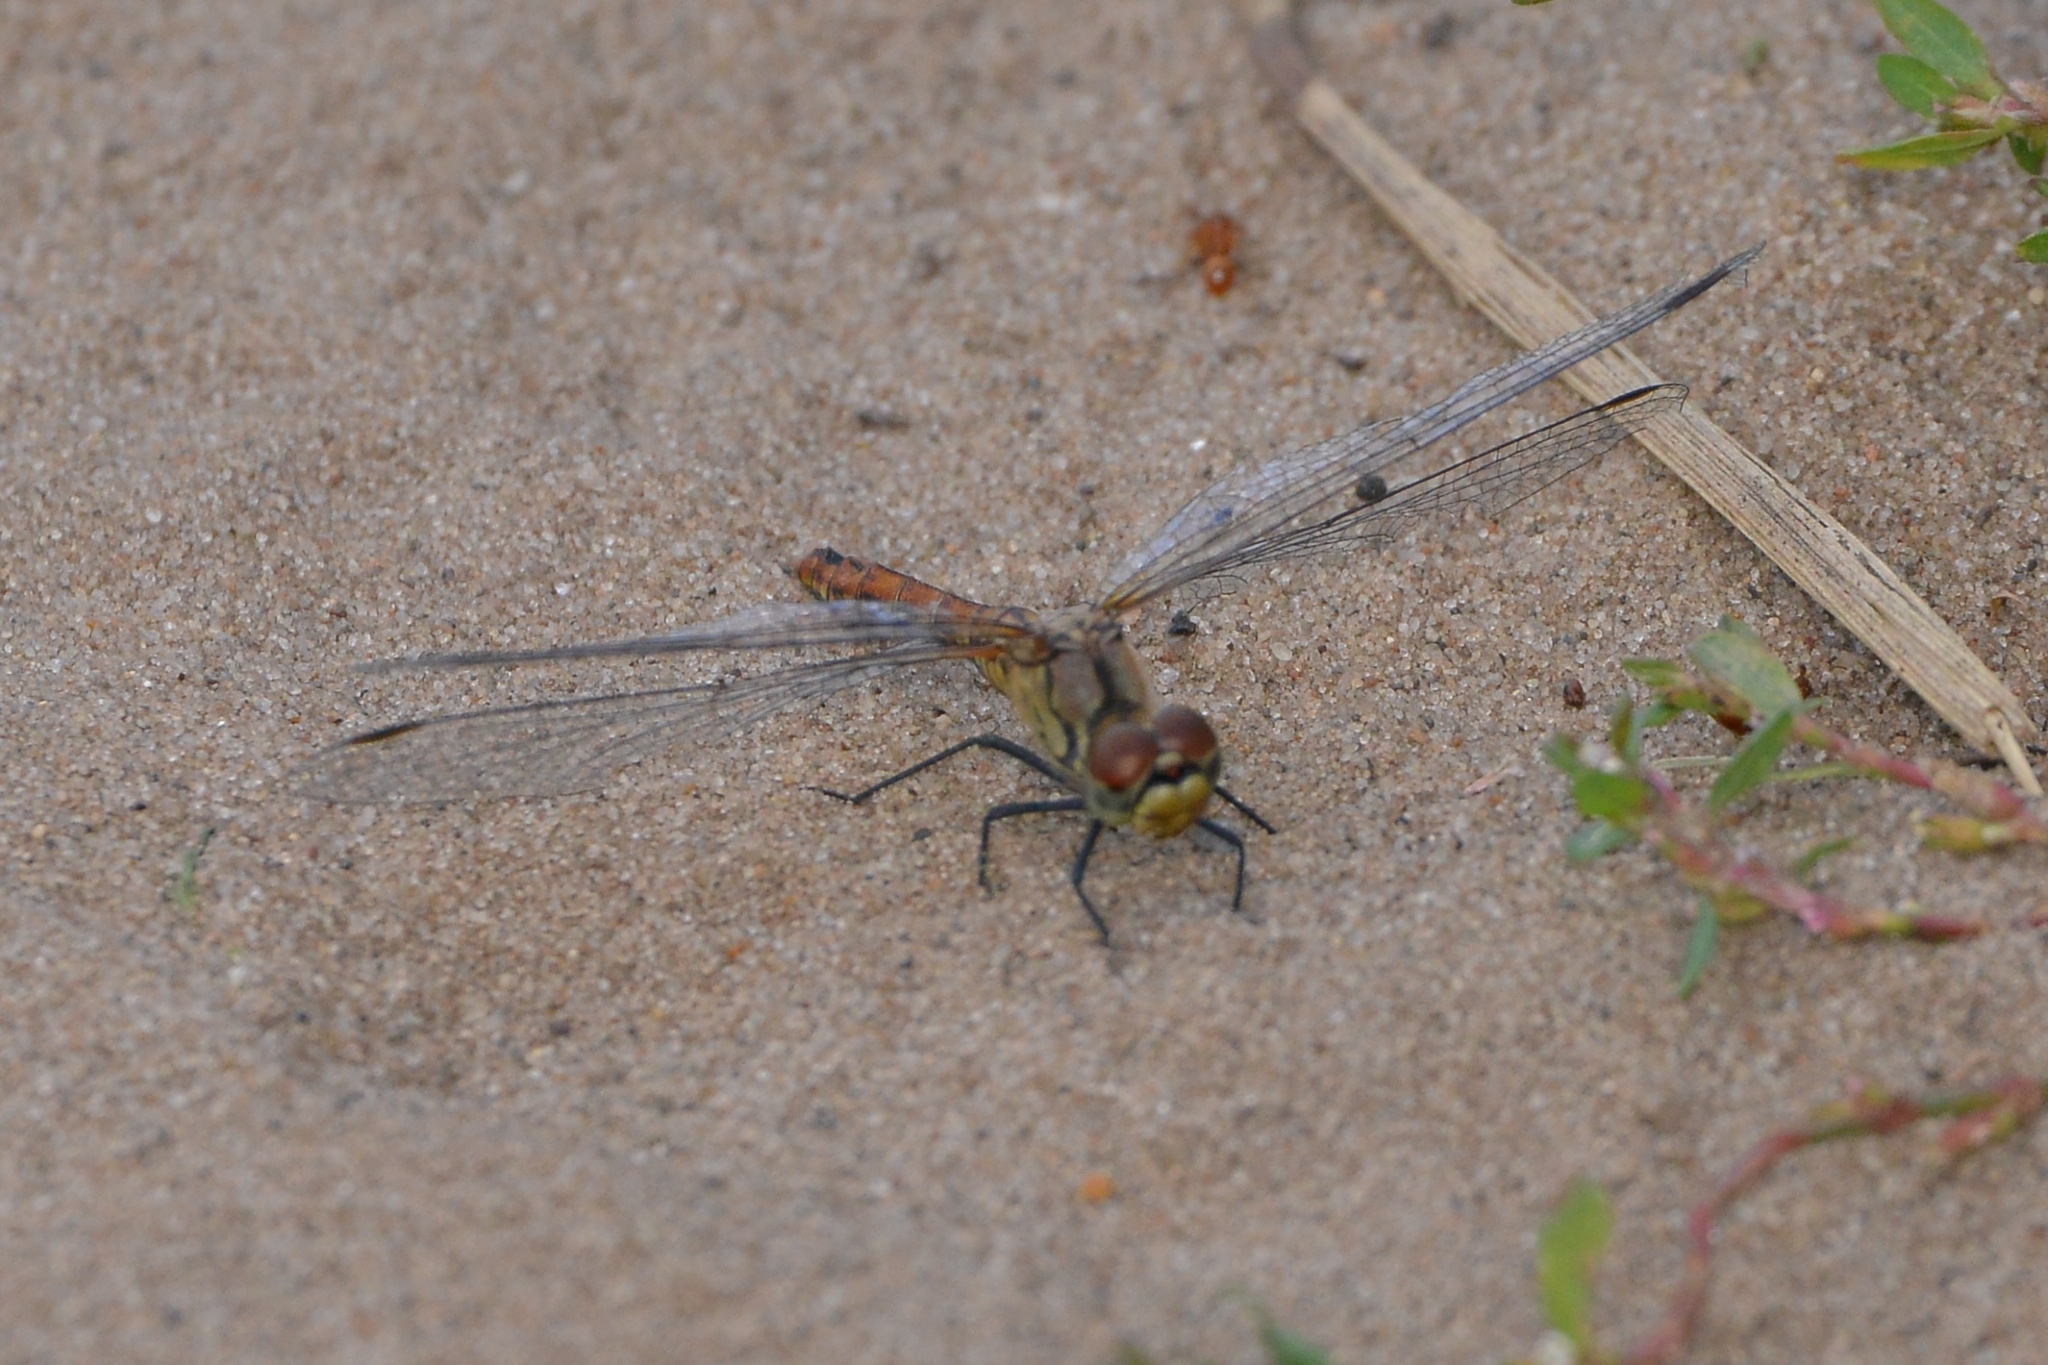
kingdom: Animalia
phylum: Arthropoda
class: Insecta
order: Odonata
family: Libellulidae
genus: Sympetrum
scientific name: Sympetrum sanguineum
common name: Ruddy darter
